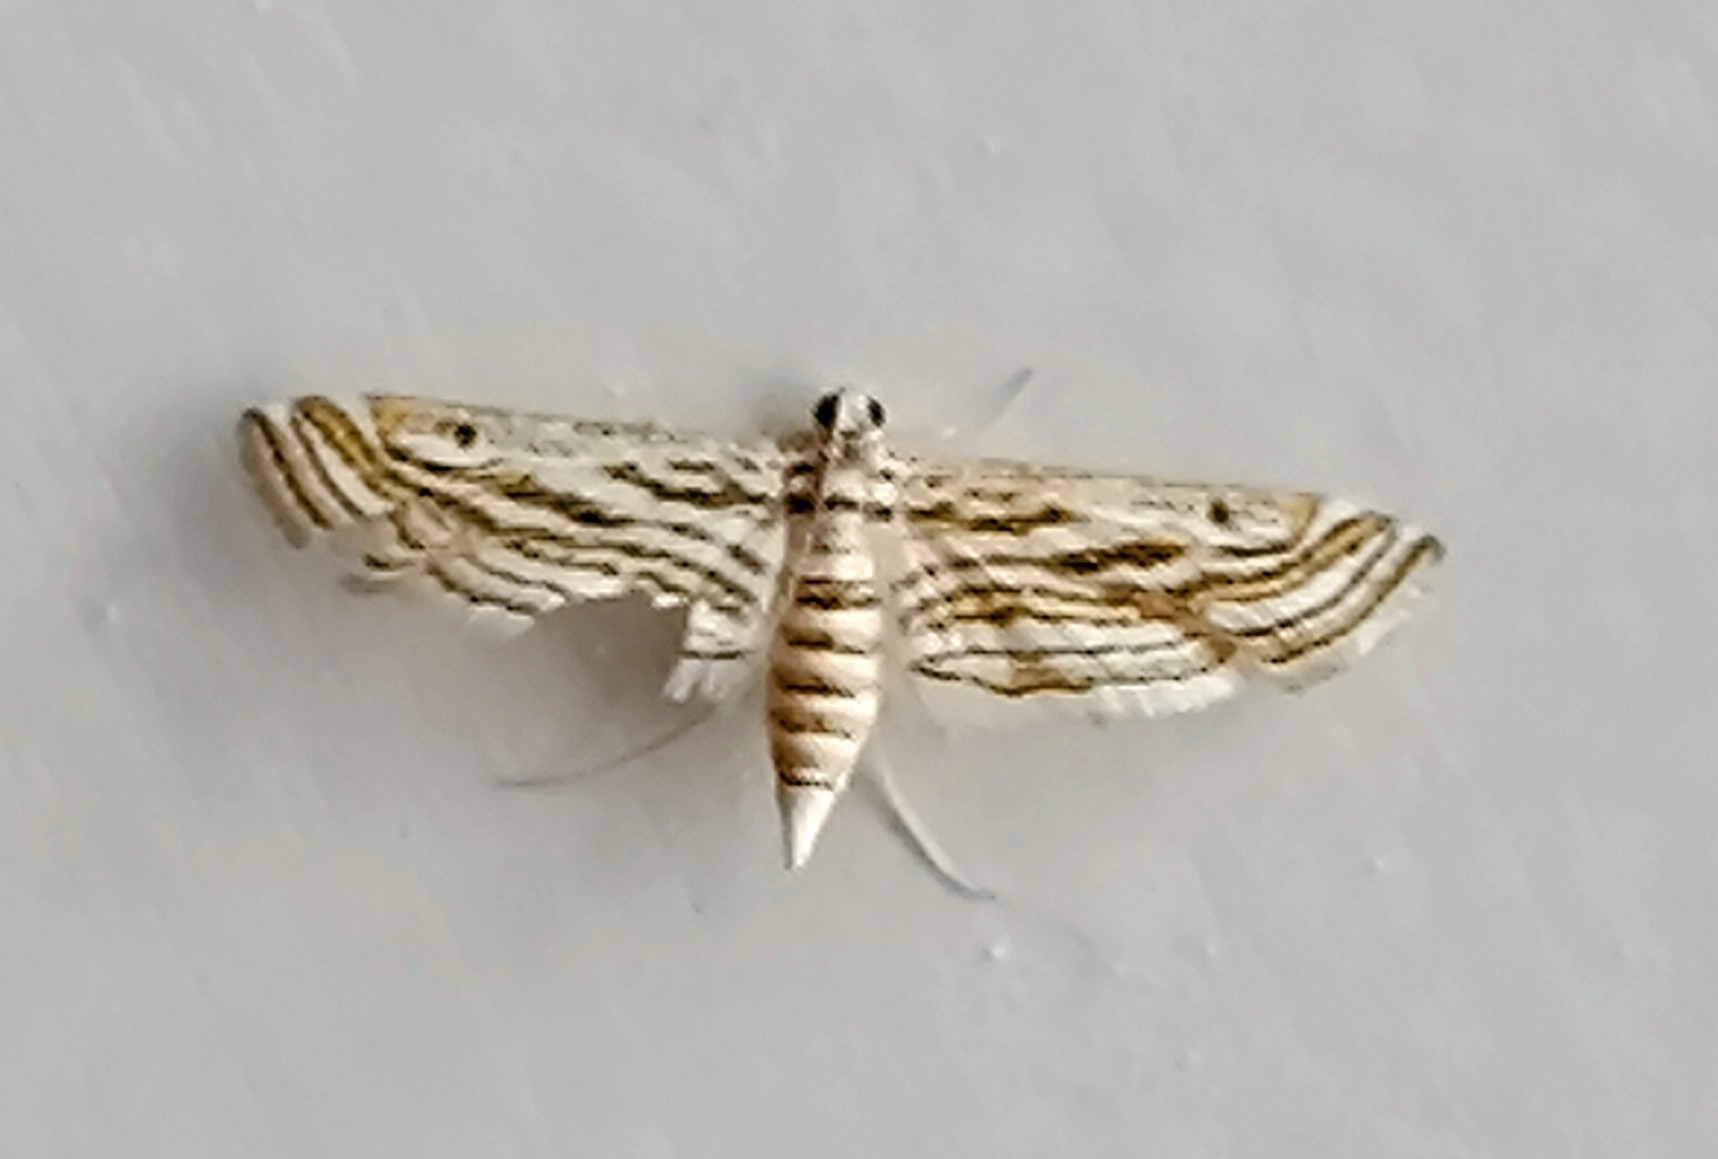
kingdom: Animalia
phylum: Arthropoda
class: Insecta
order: Lepidoptera
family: Crambidae
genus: Parapoynx
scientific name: Parapoynx fluctuosalis
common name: Moth
